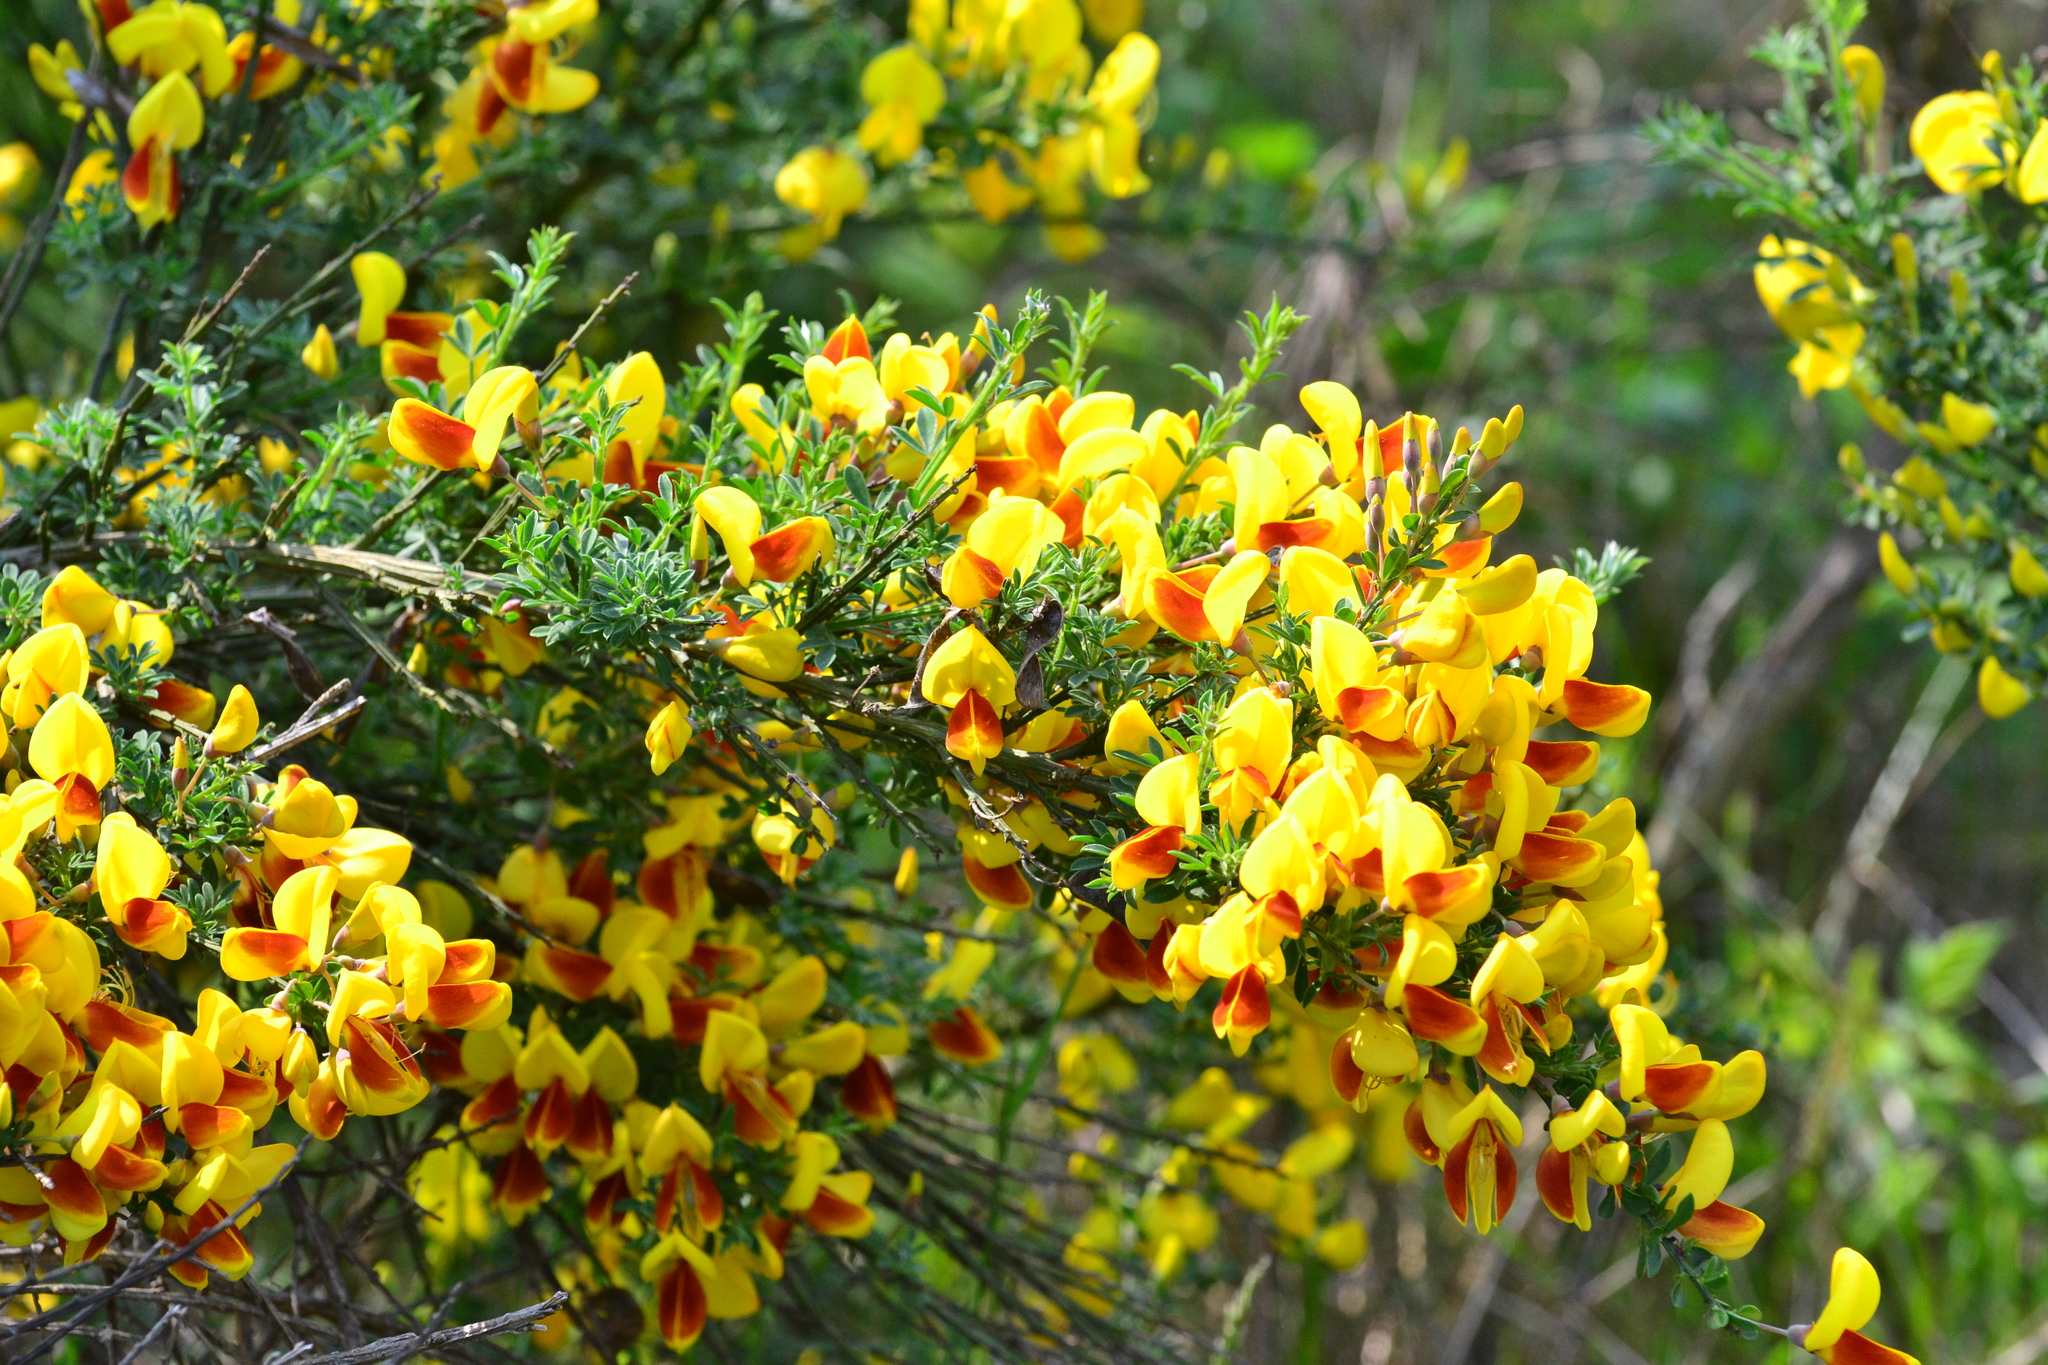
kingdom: Plantae
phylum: Tracheophyta
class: Magnoliopsida
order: Fabales
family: Fabaceae
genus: Cytisus
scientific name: Cytisus scoparius
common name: Scotch broom
